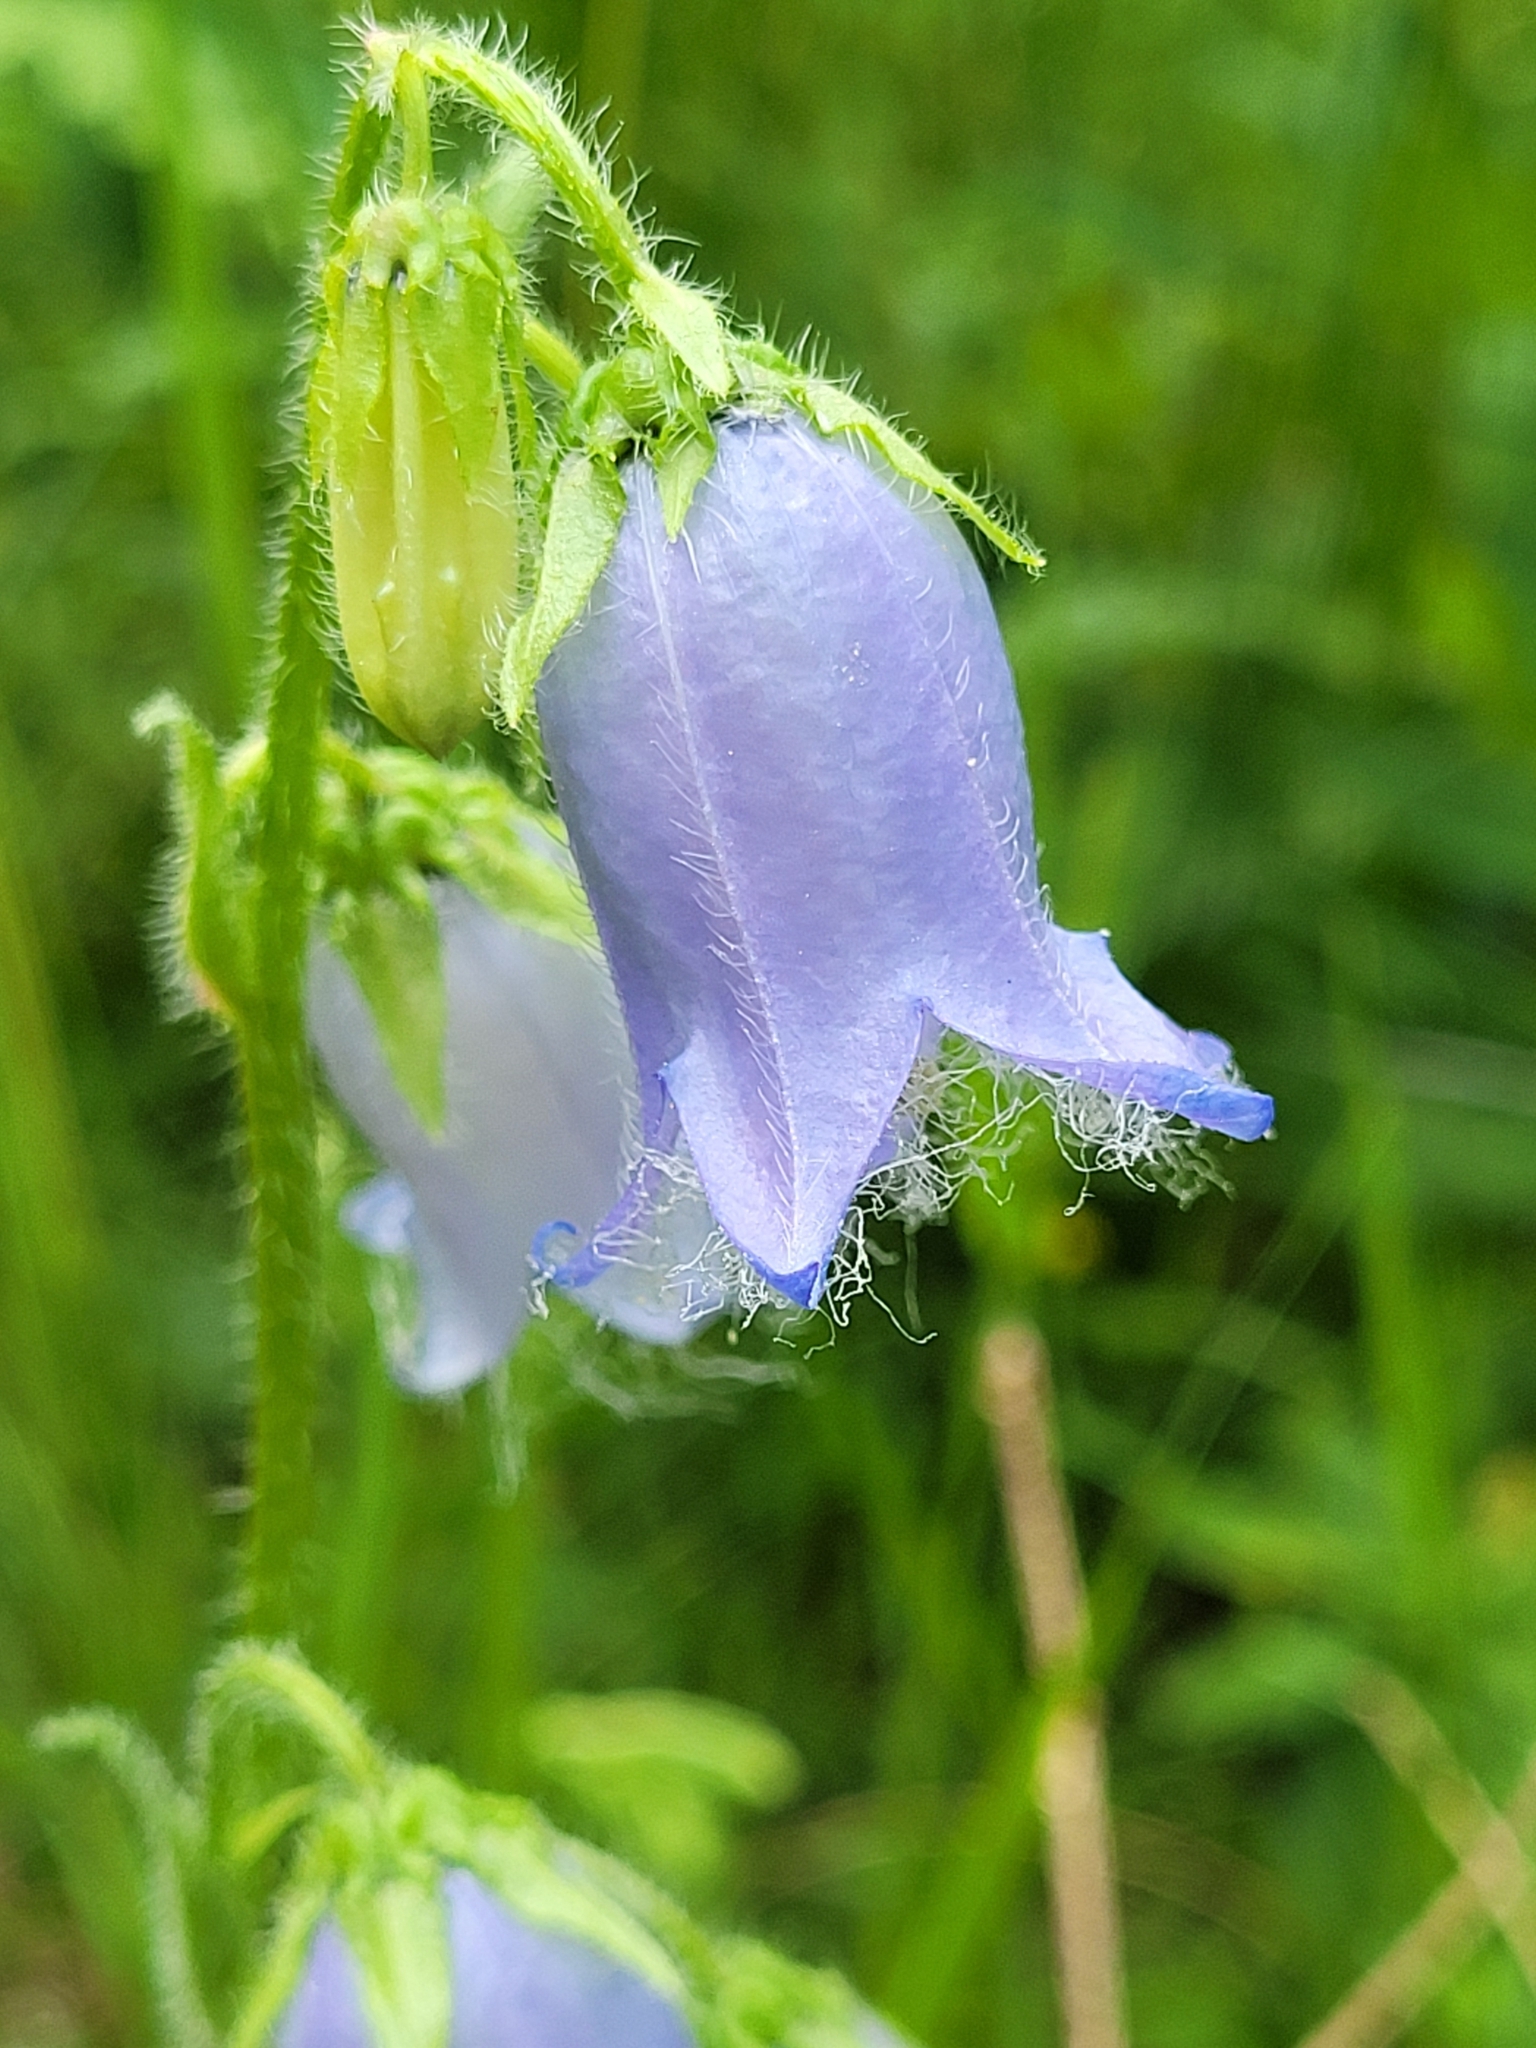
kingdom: Plantae
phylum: Tracheophyta
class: Magnoliopsida
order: Asterales
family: Campanulaceae
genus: Campanula
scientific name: Campanula barbata
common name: Bearded bellflower
